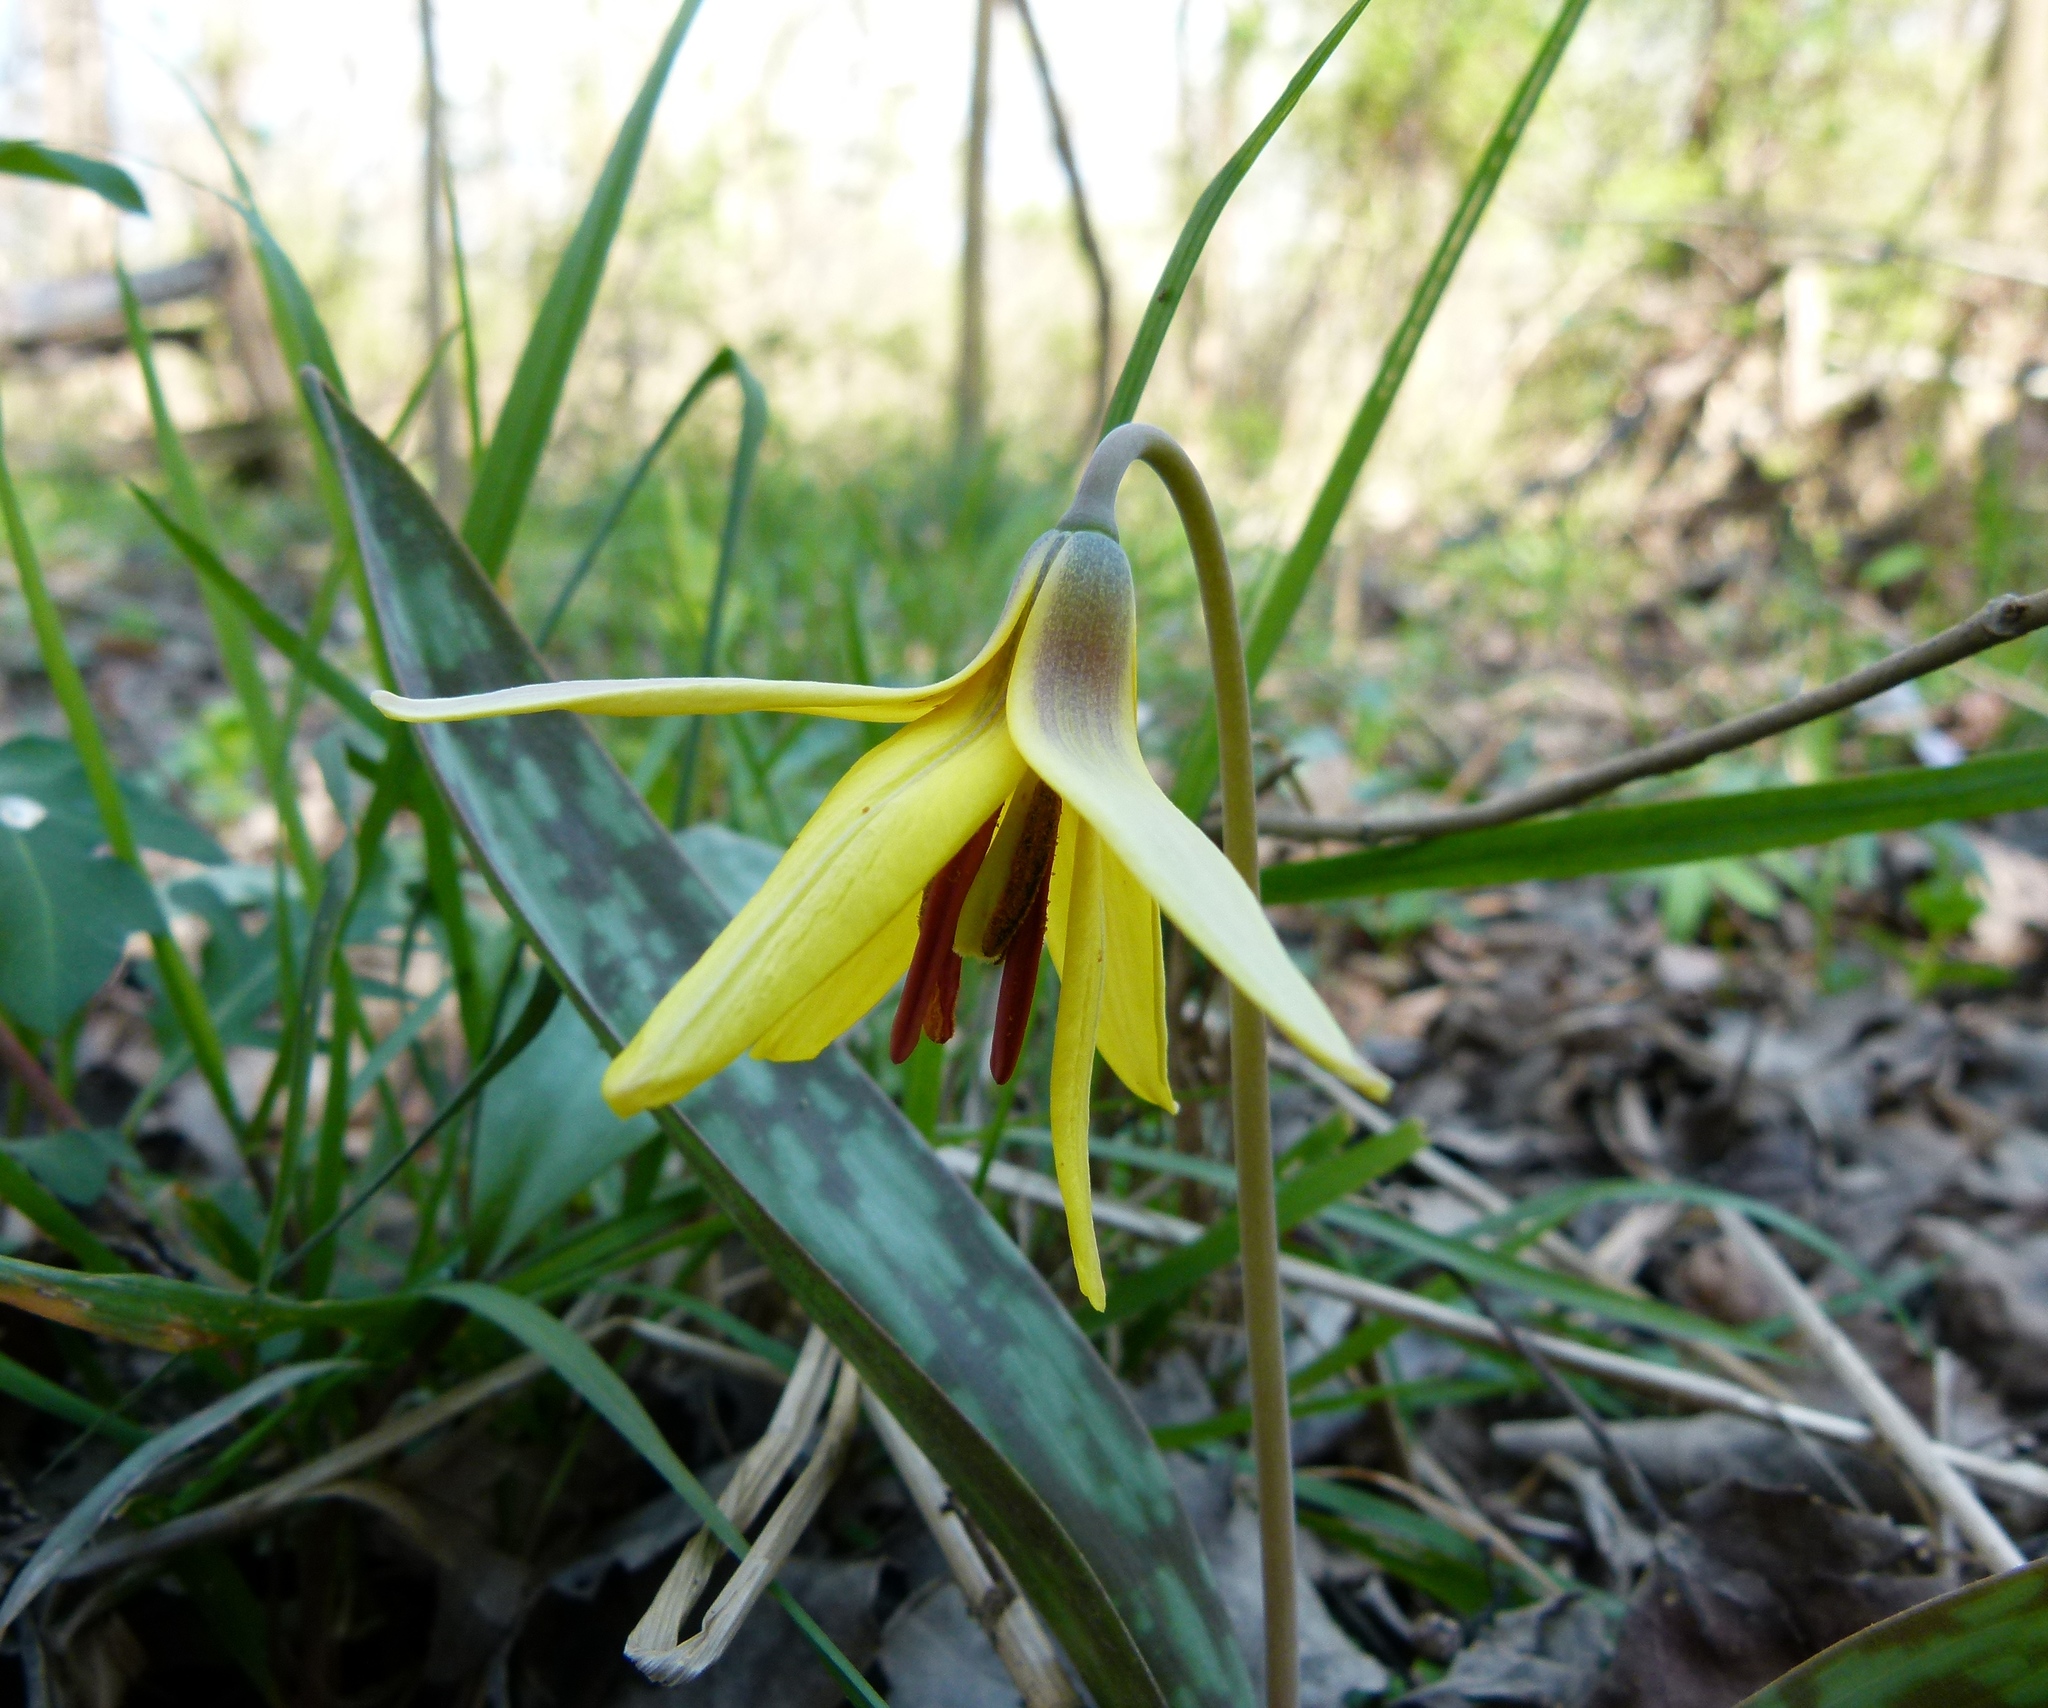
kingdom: Plantae
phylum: Tracheophyta
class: Liliopsida
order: Liliales
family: Liliaceae
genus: Erythronium
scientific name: Erythronium americanum
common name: Yellow adder's-tongue
